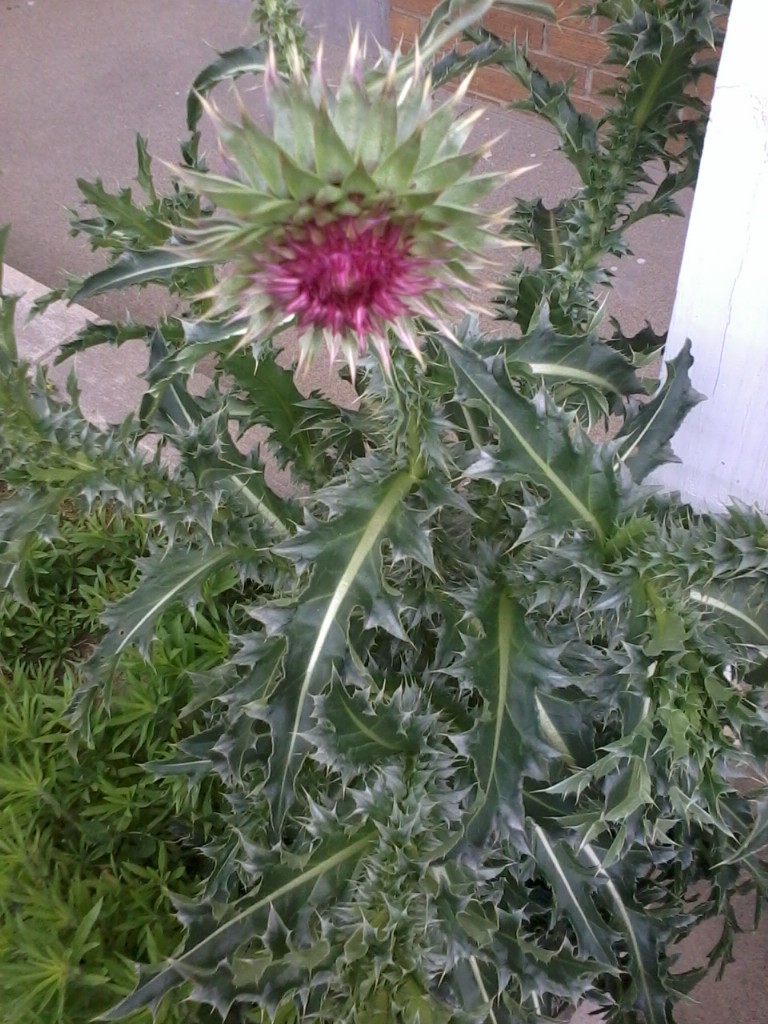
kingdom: Plantae
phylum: Tracheophyta
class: Magnoliopsida
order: Asterales
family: Asteraceae
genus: Carduus
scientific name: Carduus nutans
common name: Musk thistle
